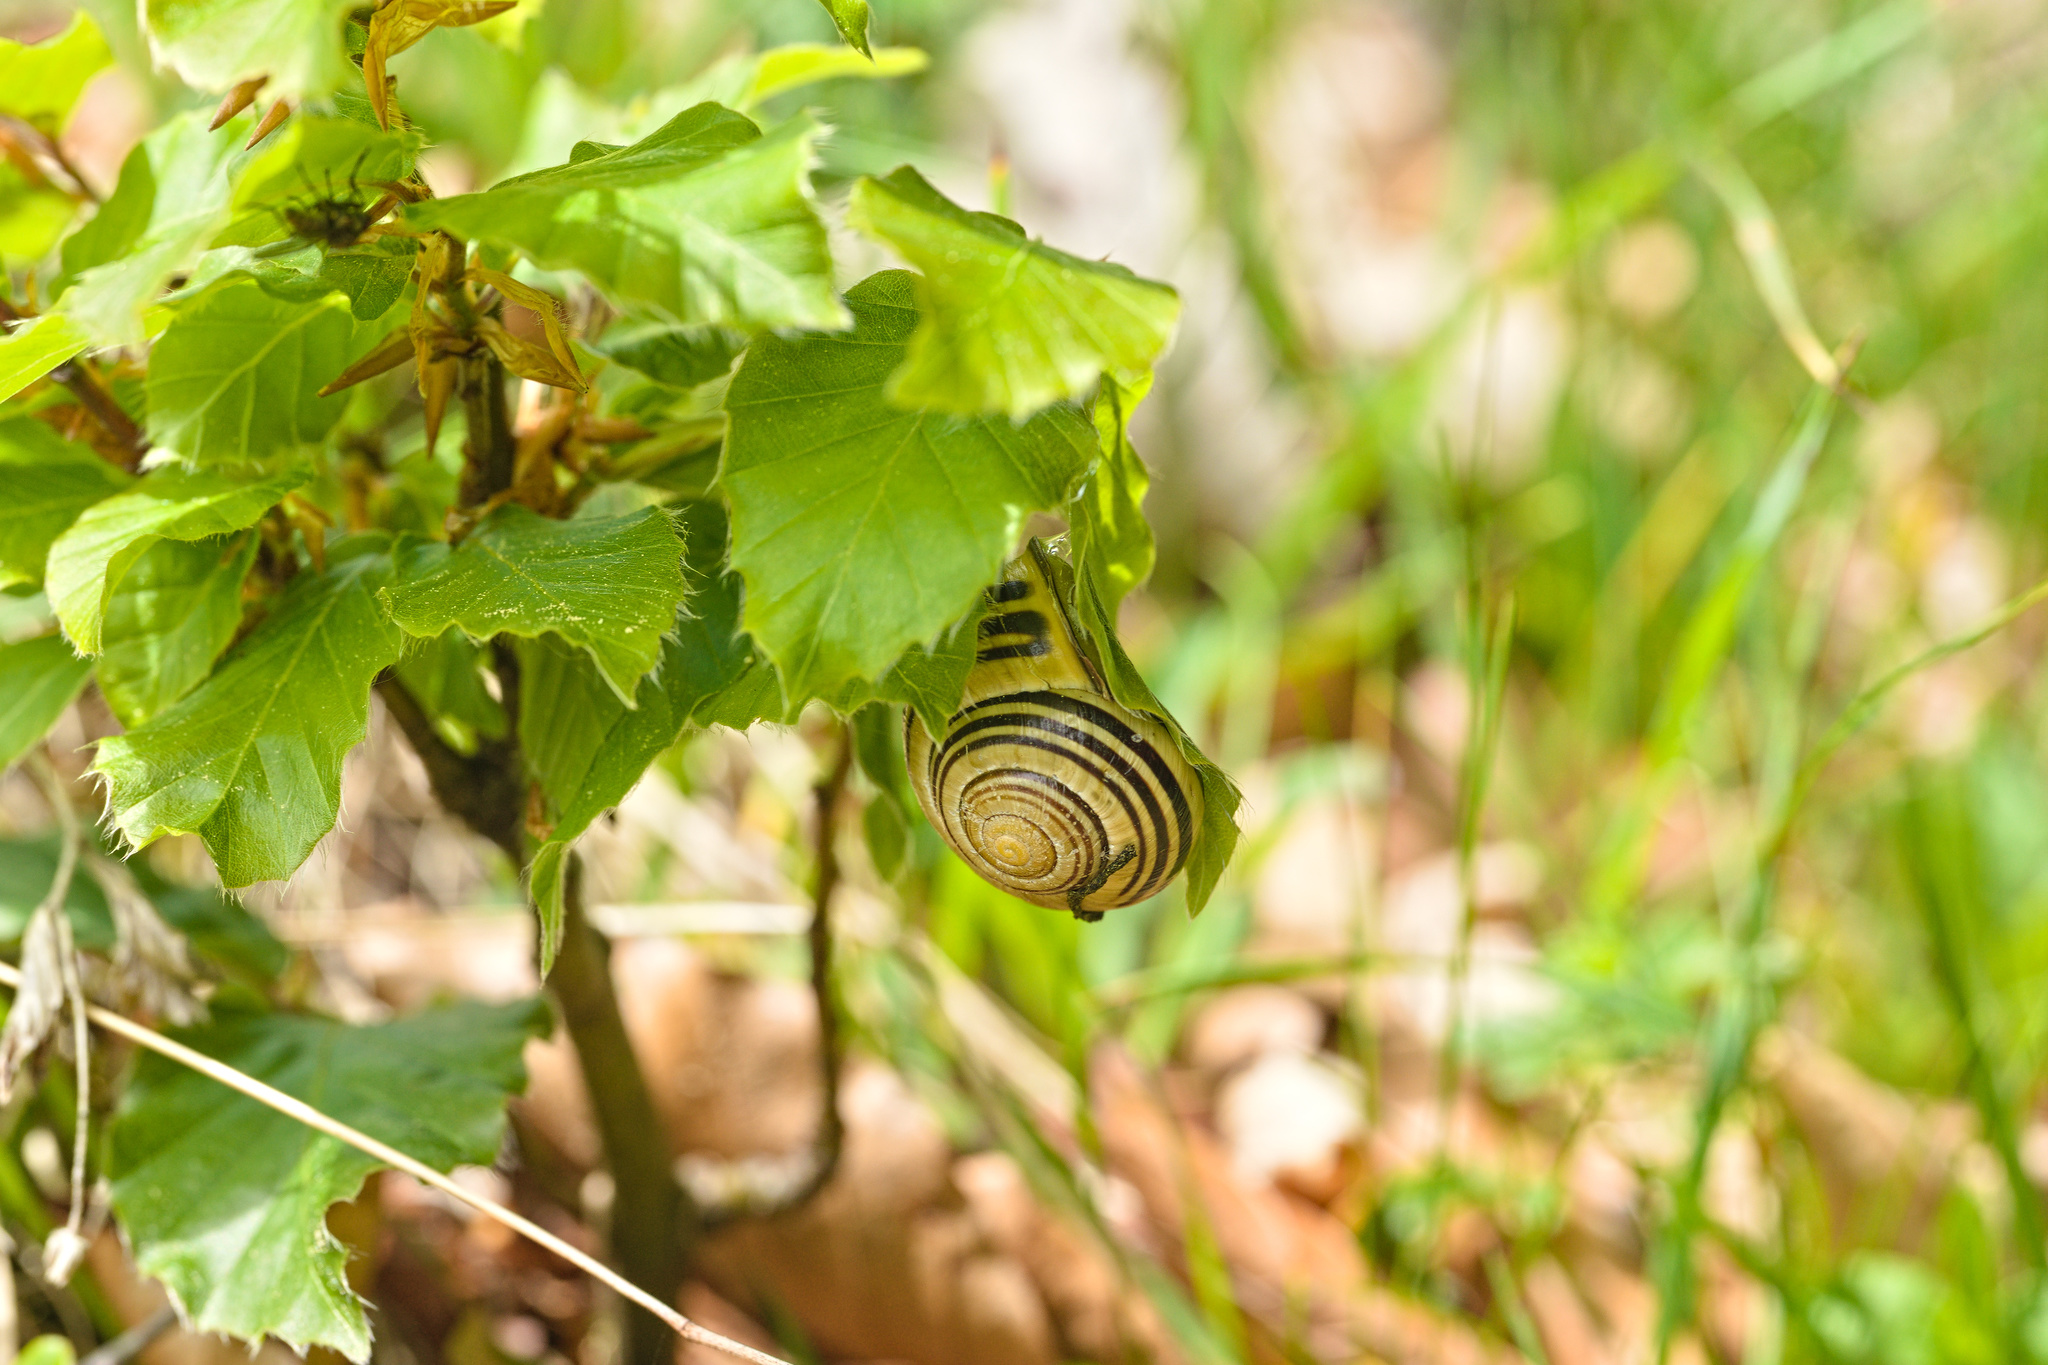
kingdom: Animalia
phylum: Mollusca
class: Gastropoda
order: Stylommatophora
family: Helicidae
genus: Cepaea
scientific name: Cepaea nemoralis
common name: Grovesnail
